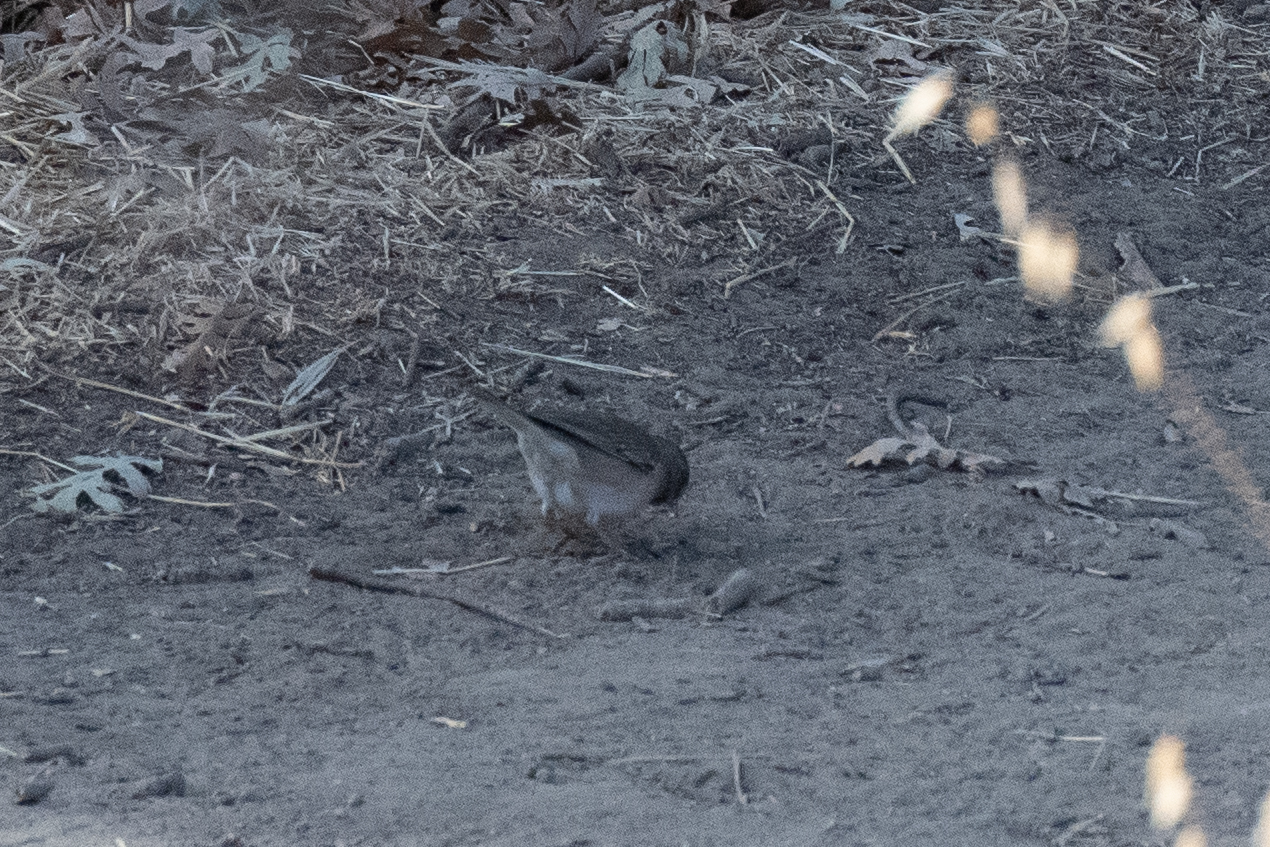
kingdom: Animalia
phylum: Chordata
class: Aves
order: Passeriformes
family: Passerellidae
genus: Junco
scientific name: Junco hyemalis
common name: Dark-eyed junco
